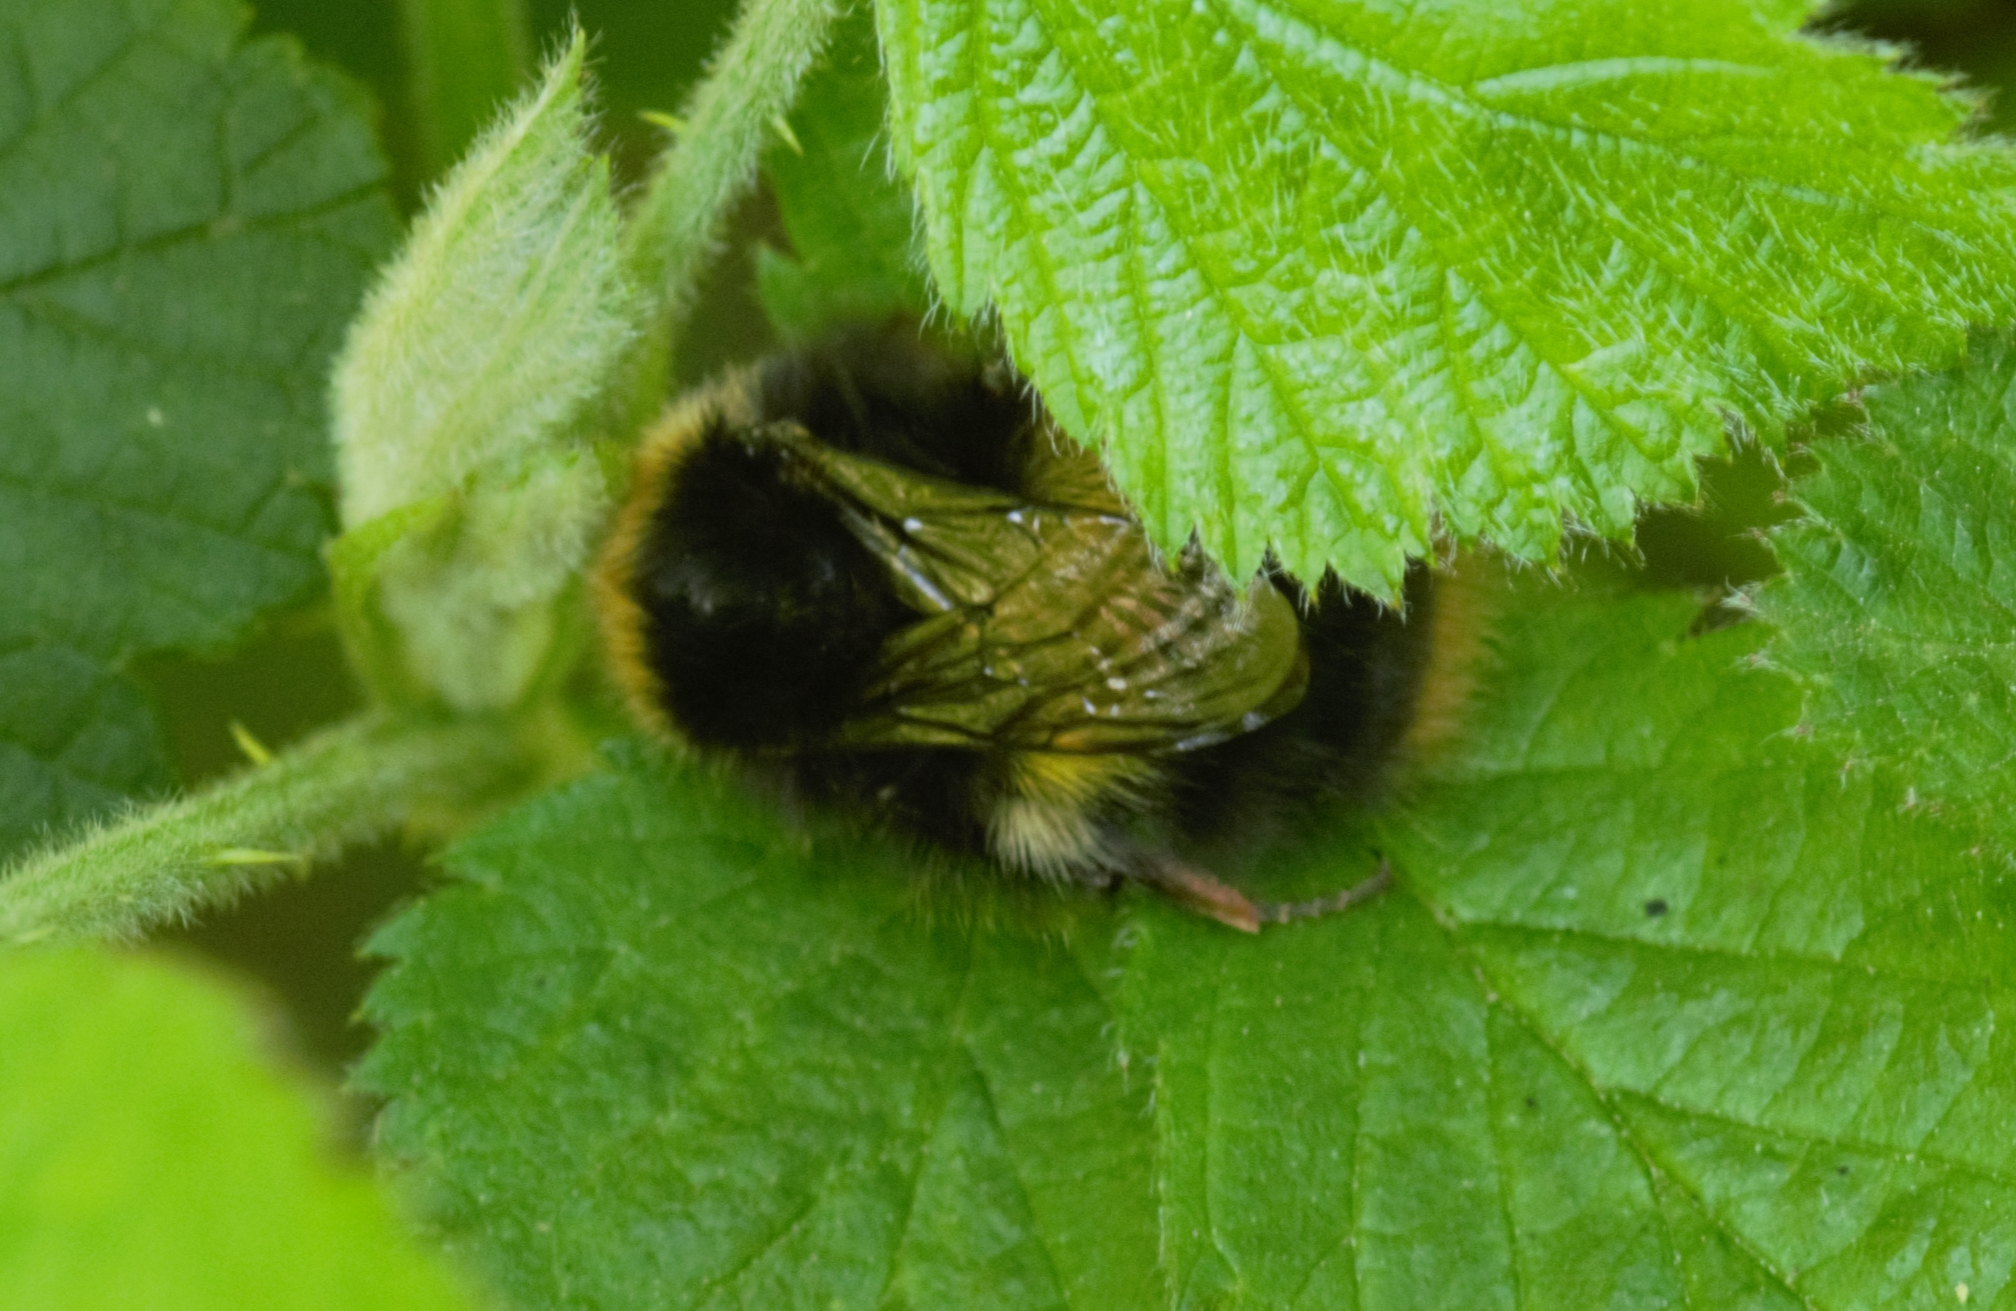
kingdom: Animalia
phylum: Arthropoda
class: Insecta
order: Hymenoptera
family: Apidae
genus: Bombus
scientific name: Bombus pratorum
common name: Early humble-bee
